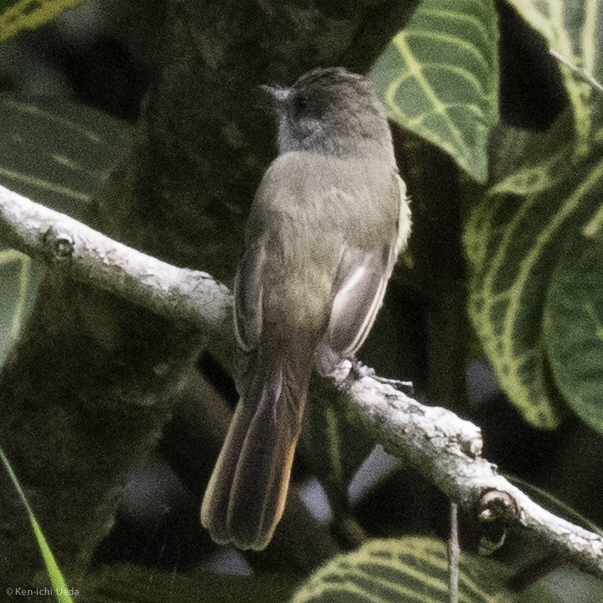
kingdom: Animalia
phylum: Chordata
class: Aves
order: Passeriformes
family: Tyrannidae
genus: Myiarchus
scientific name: Myiarchus tuberculifer
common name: Dusky-capped flycatcher
